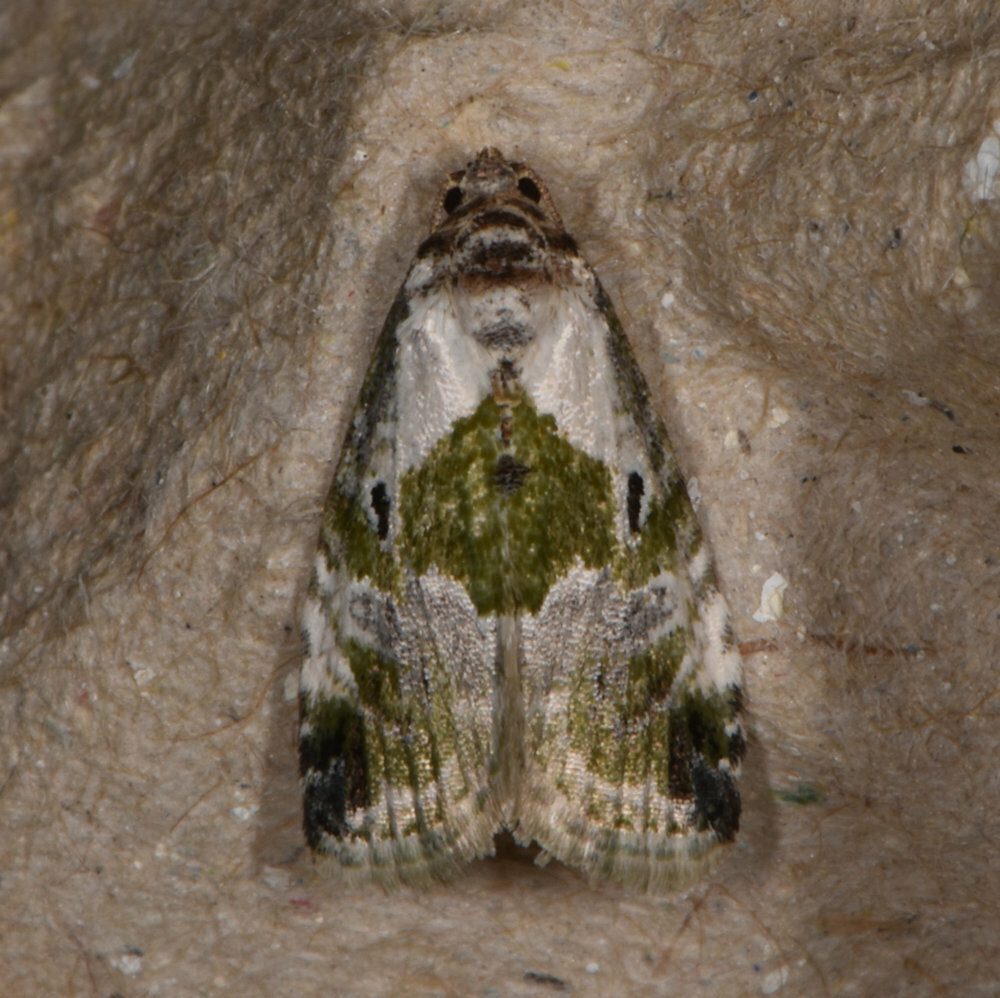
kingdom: Animalia
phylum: Arthropoda
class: Insecta
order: Lepidoptera
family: Noctuidae
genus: Maliattha
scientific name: Maliattha synochitis
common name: Black-dotted glyph
